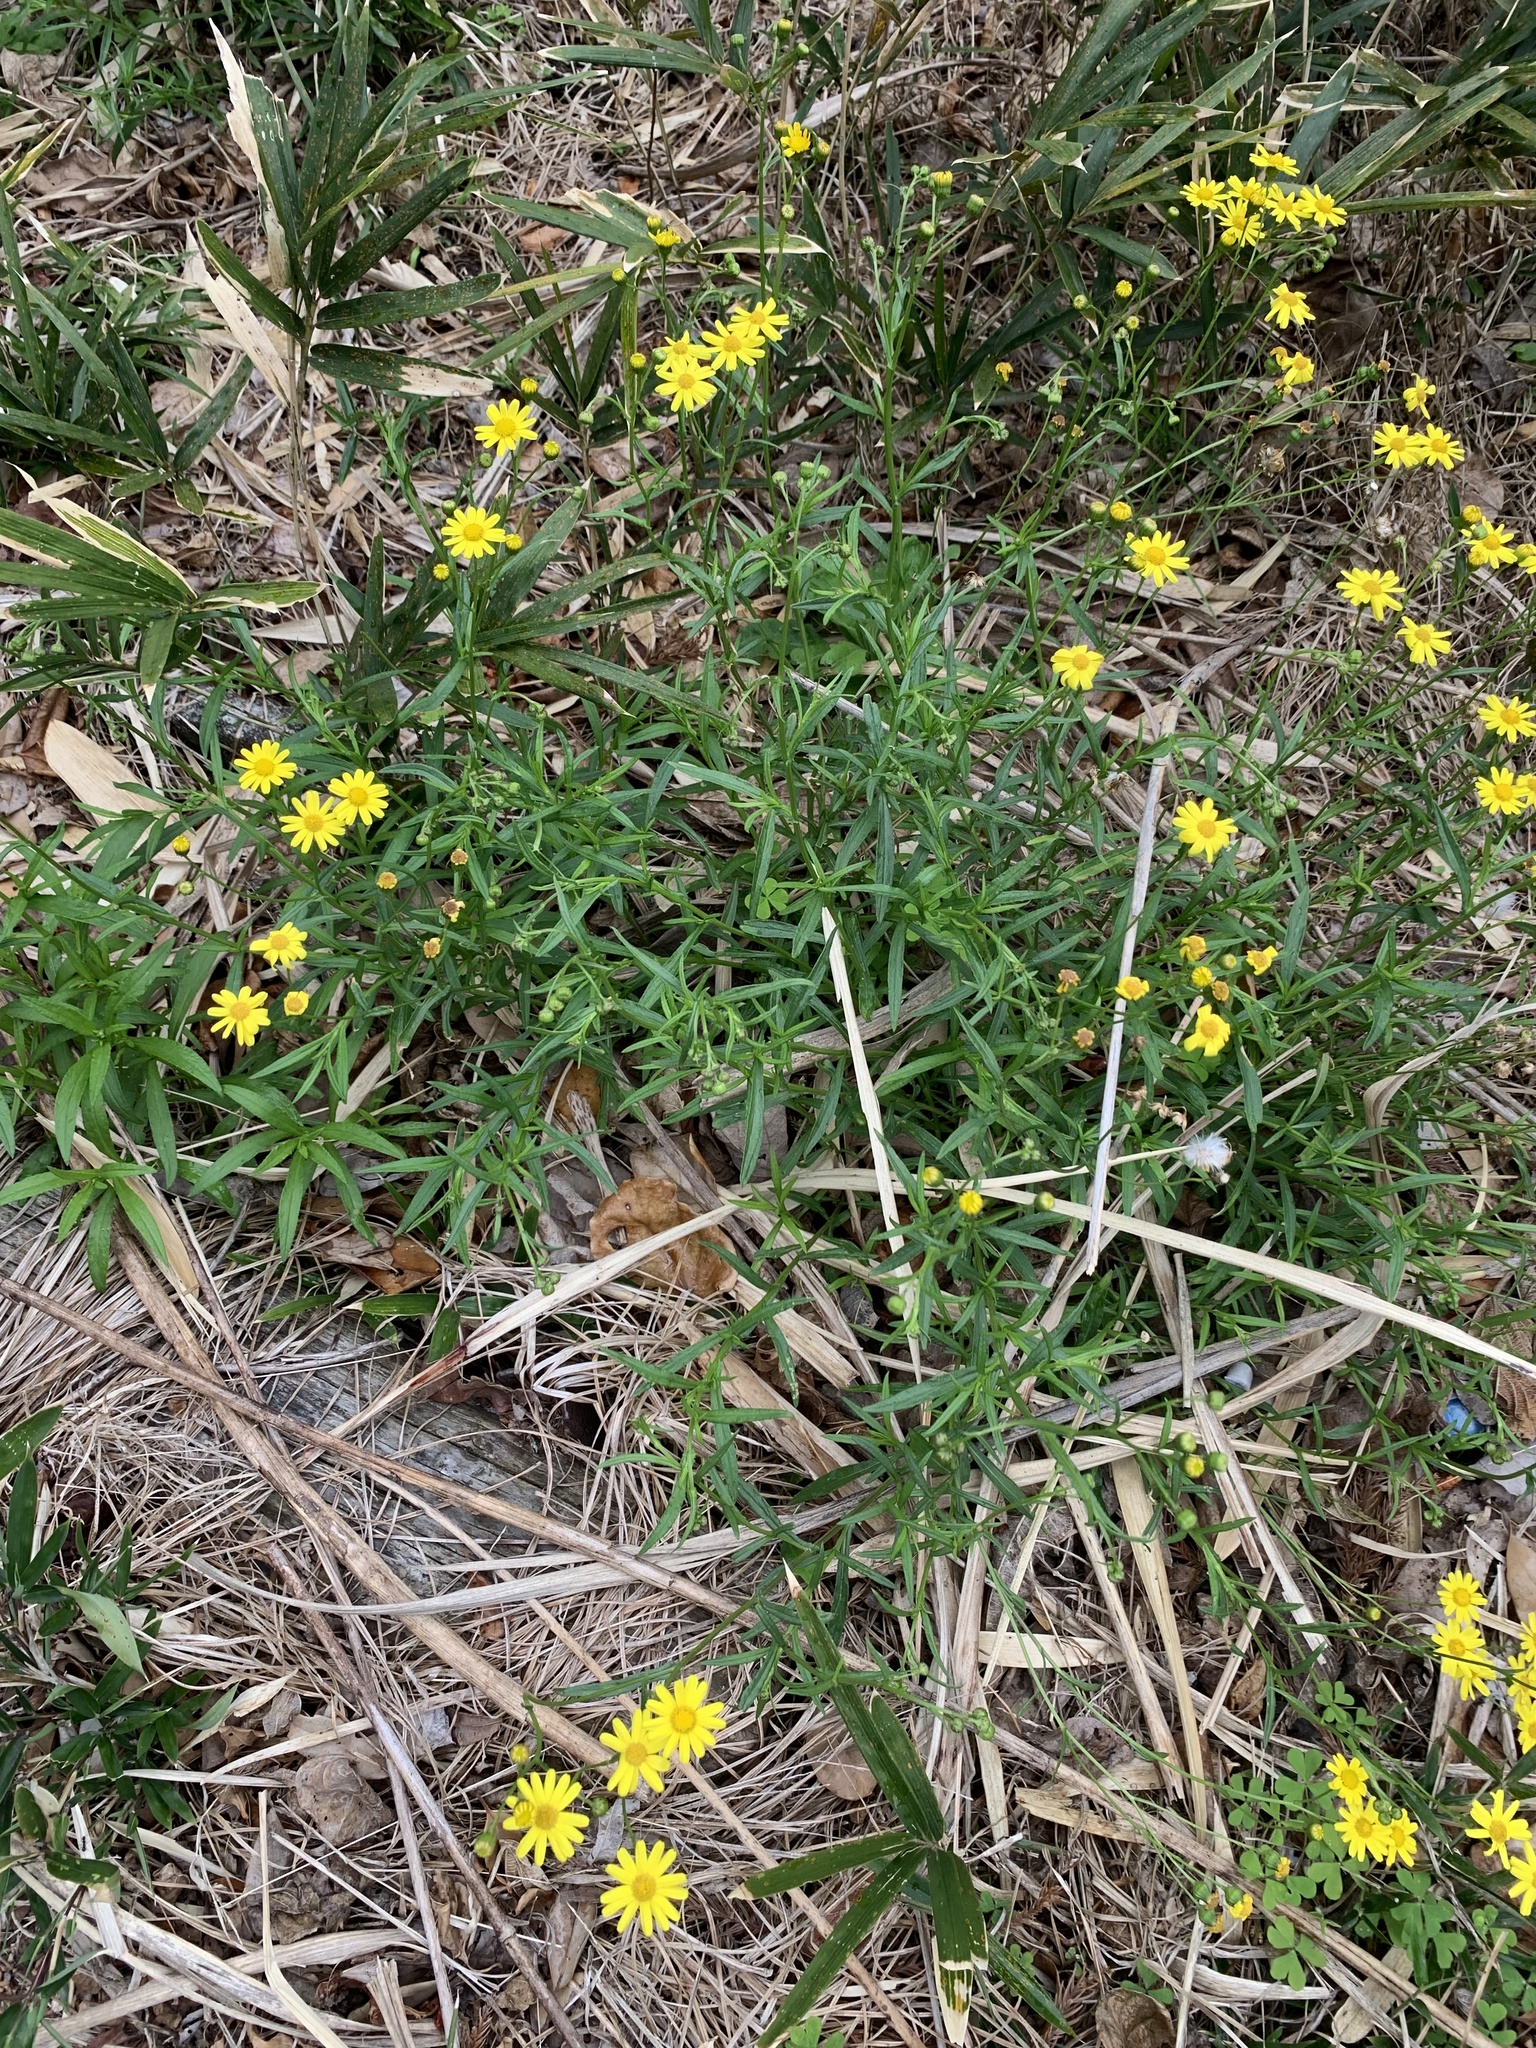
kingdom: Plantae
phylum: Tracheophyta
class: Magnoliopsida
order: Asterales
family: Asteraceae
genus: Senecio
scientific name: Senecio madagascariensis
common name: Madagascar ragwort
